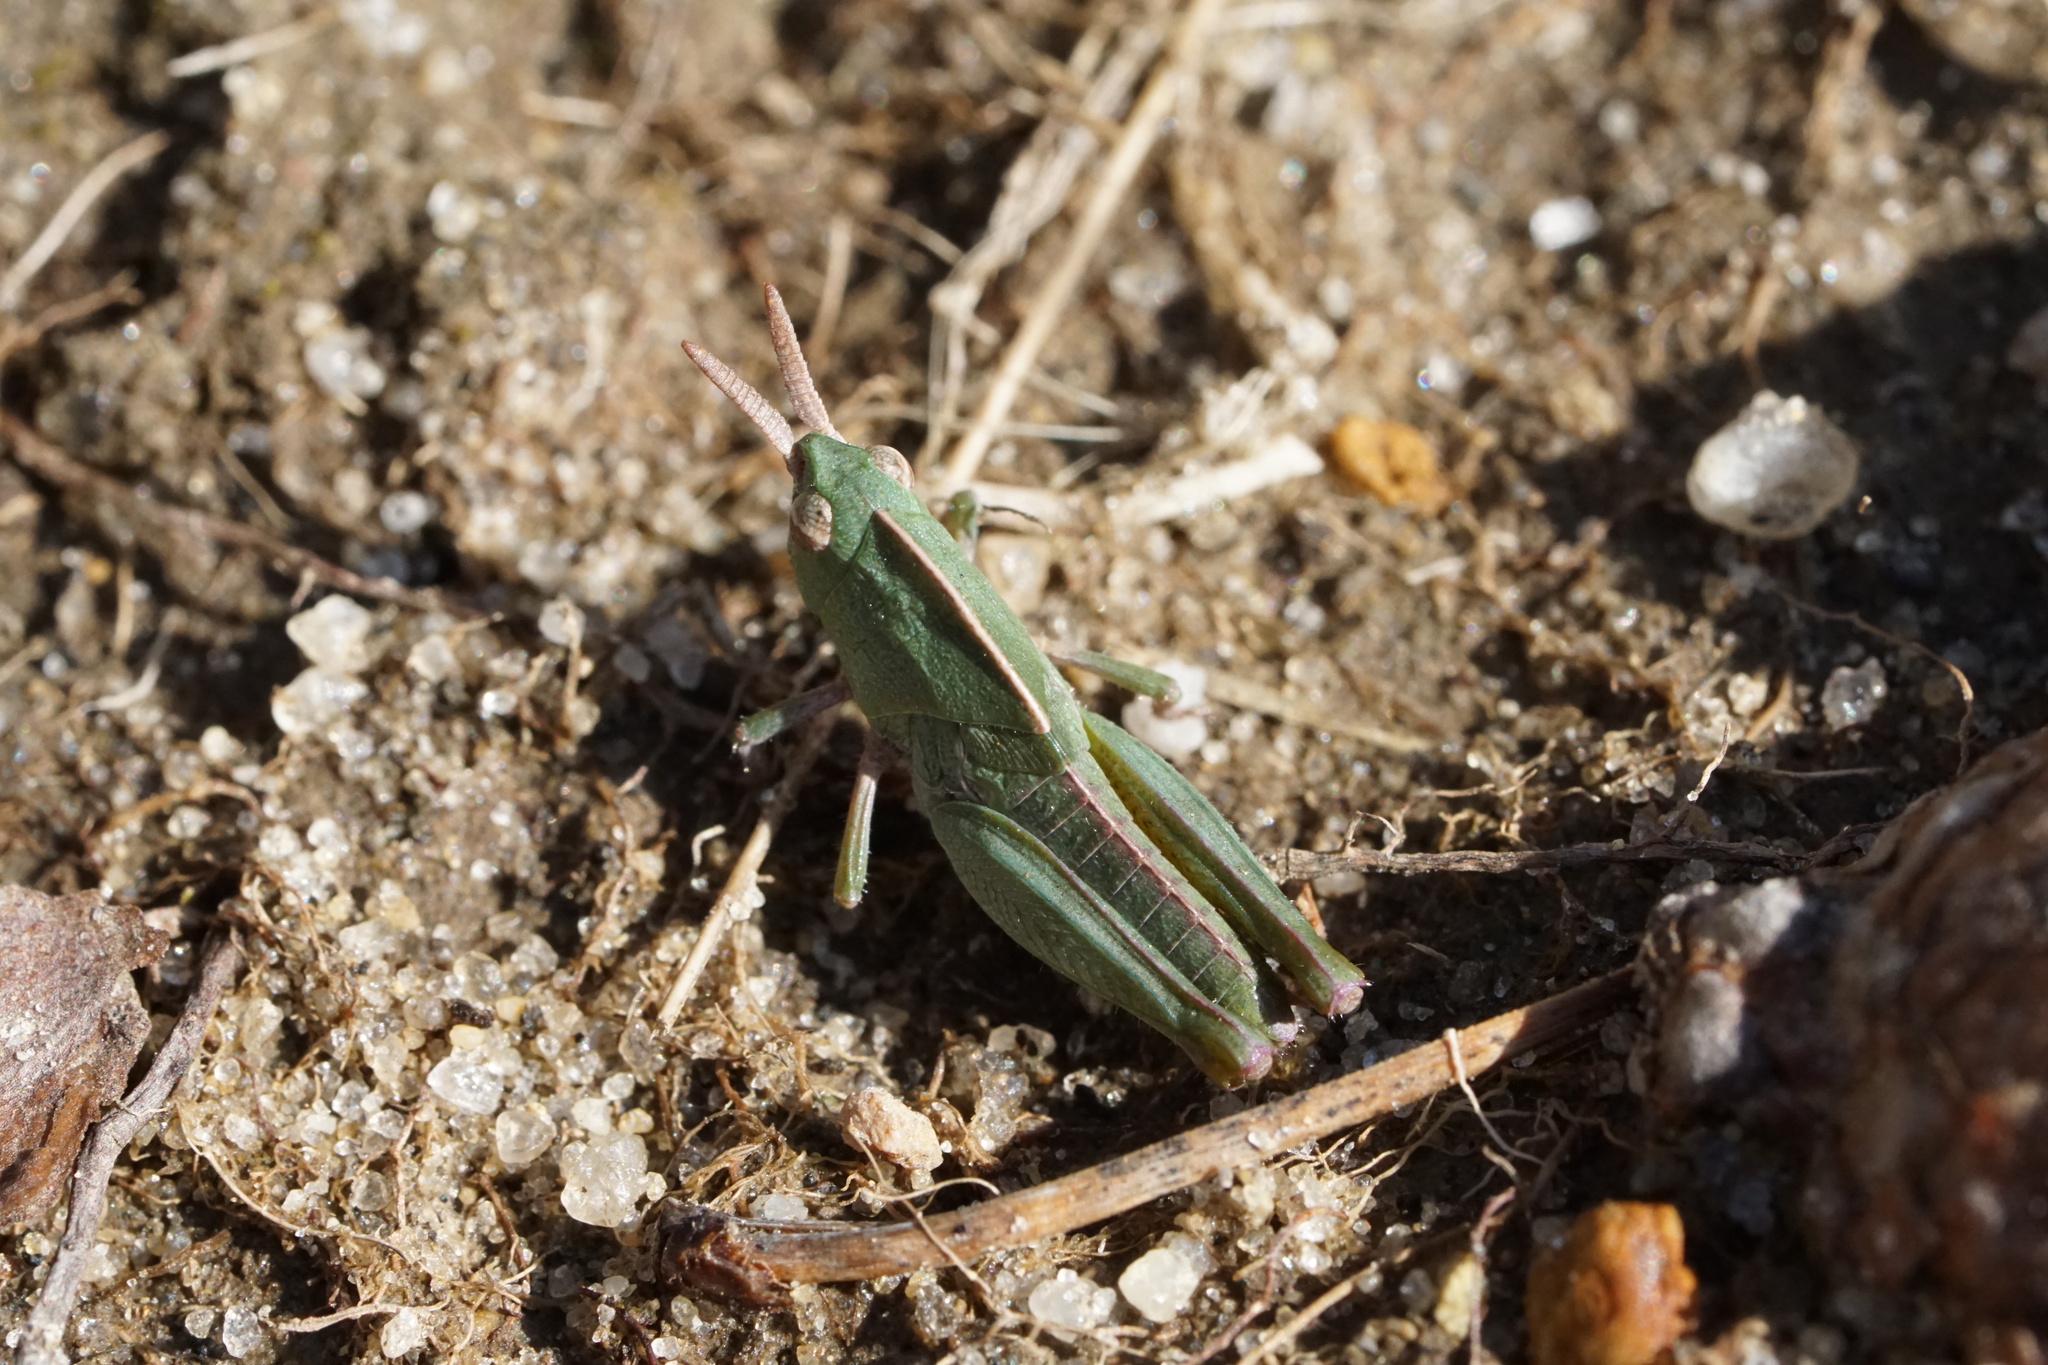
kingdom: Animalia
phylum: Arthropoda
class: Insecta
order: Orthoptera
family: Acrididae
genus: Chortophaga
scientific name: Chortophaga viridifasciata
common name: Green-striped grasshopper
